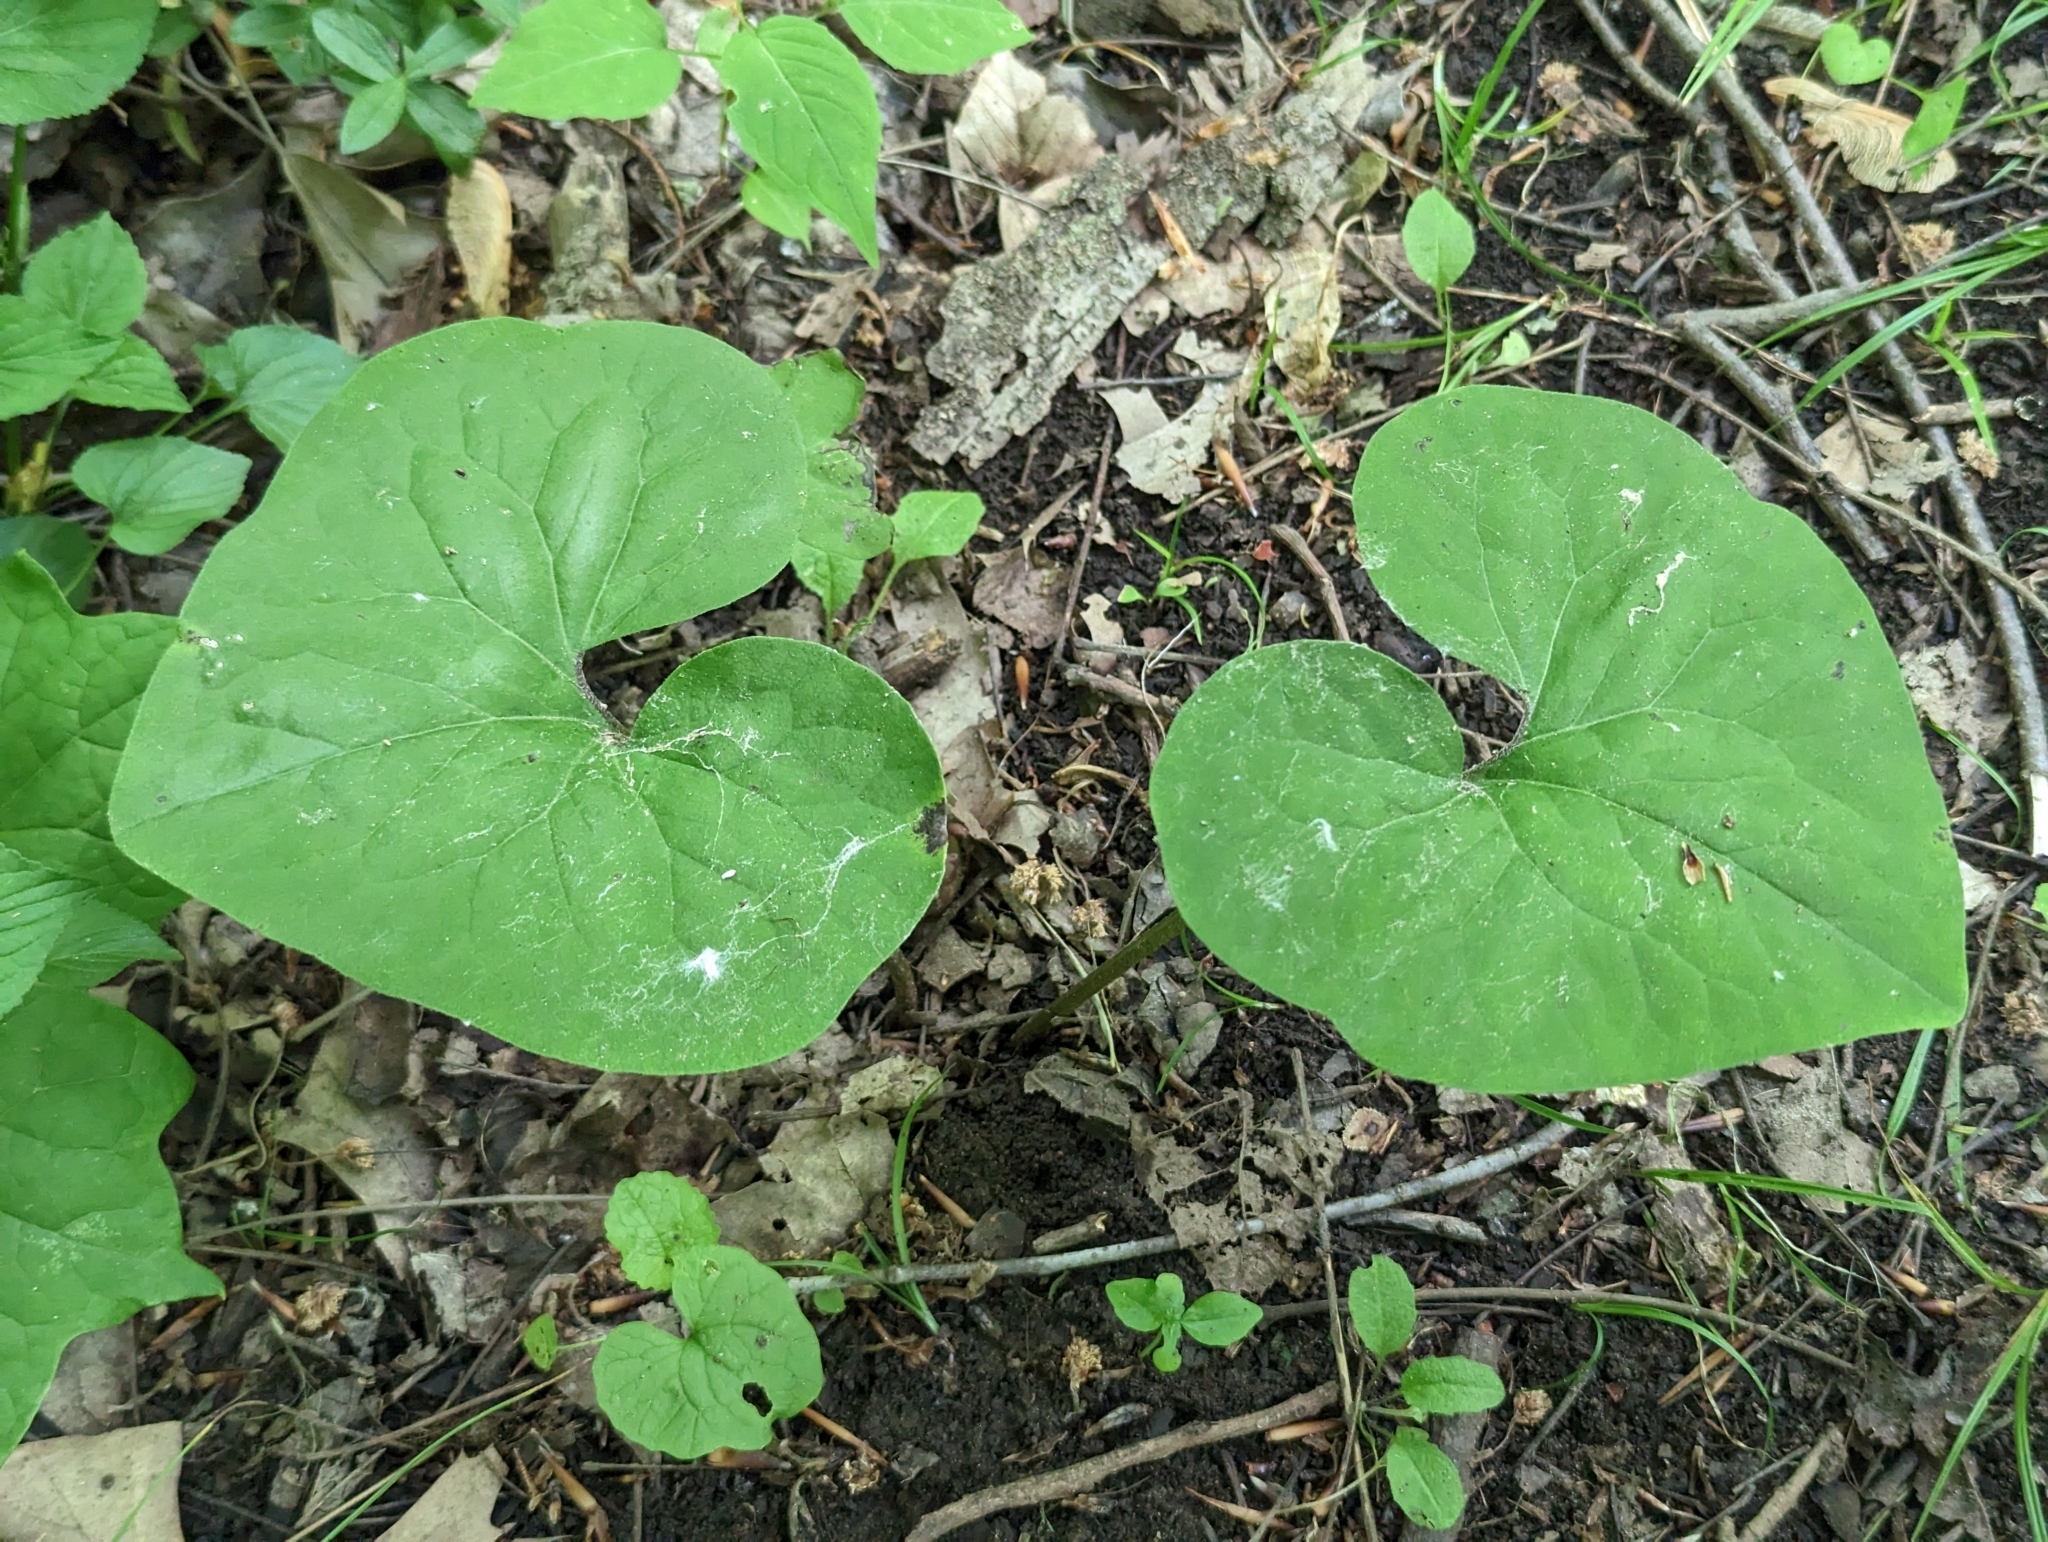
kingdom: Plantae
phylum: Tracheophyta
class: Magnoliopsida
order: Piperales
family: Aristolochiaceae
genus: Asarum
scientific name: Asarum canadense
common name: Wild ginger
